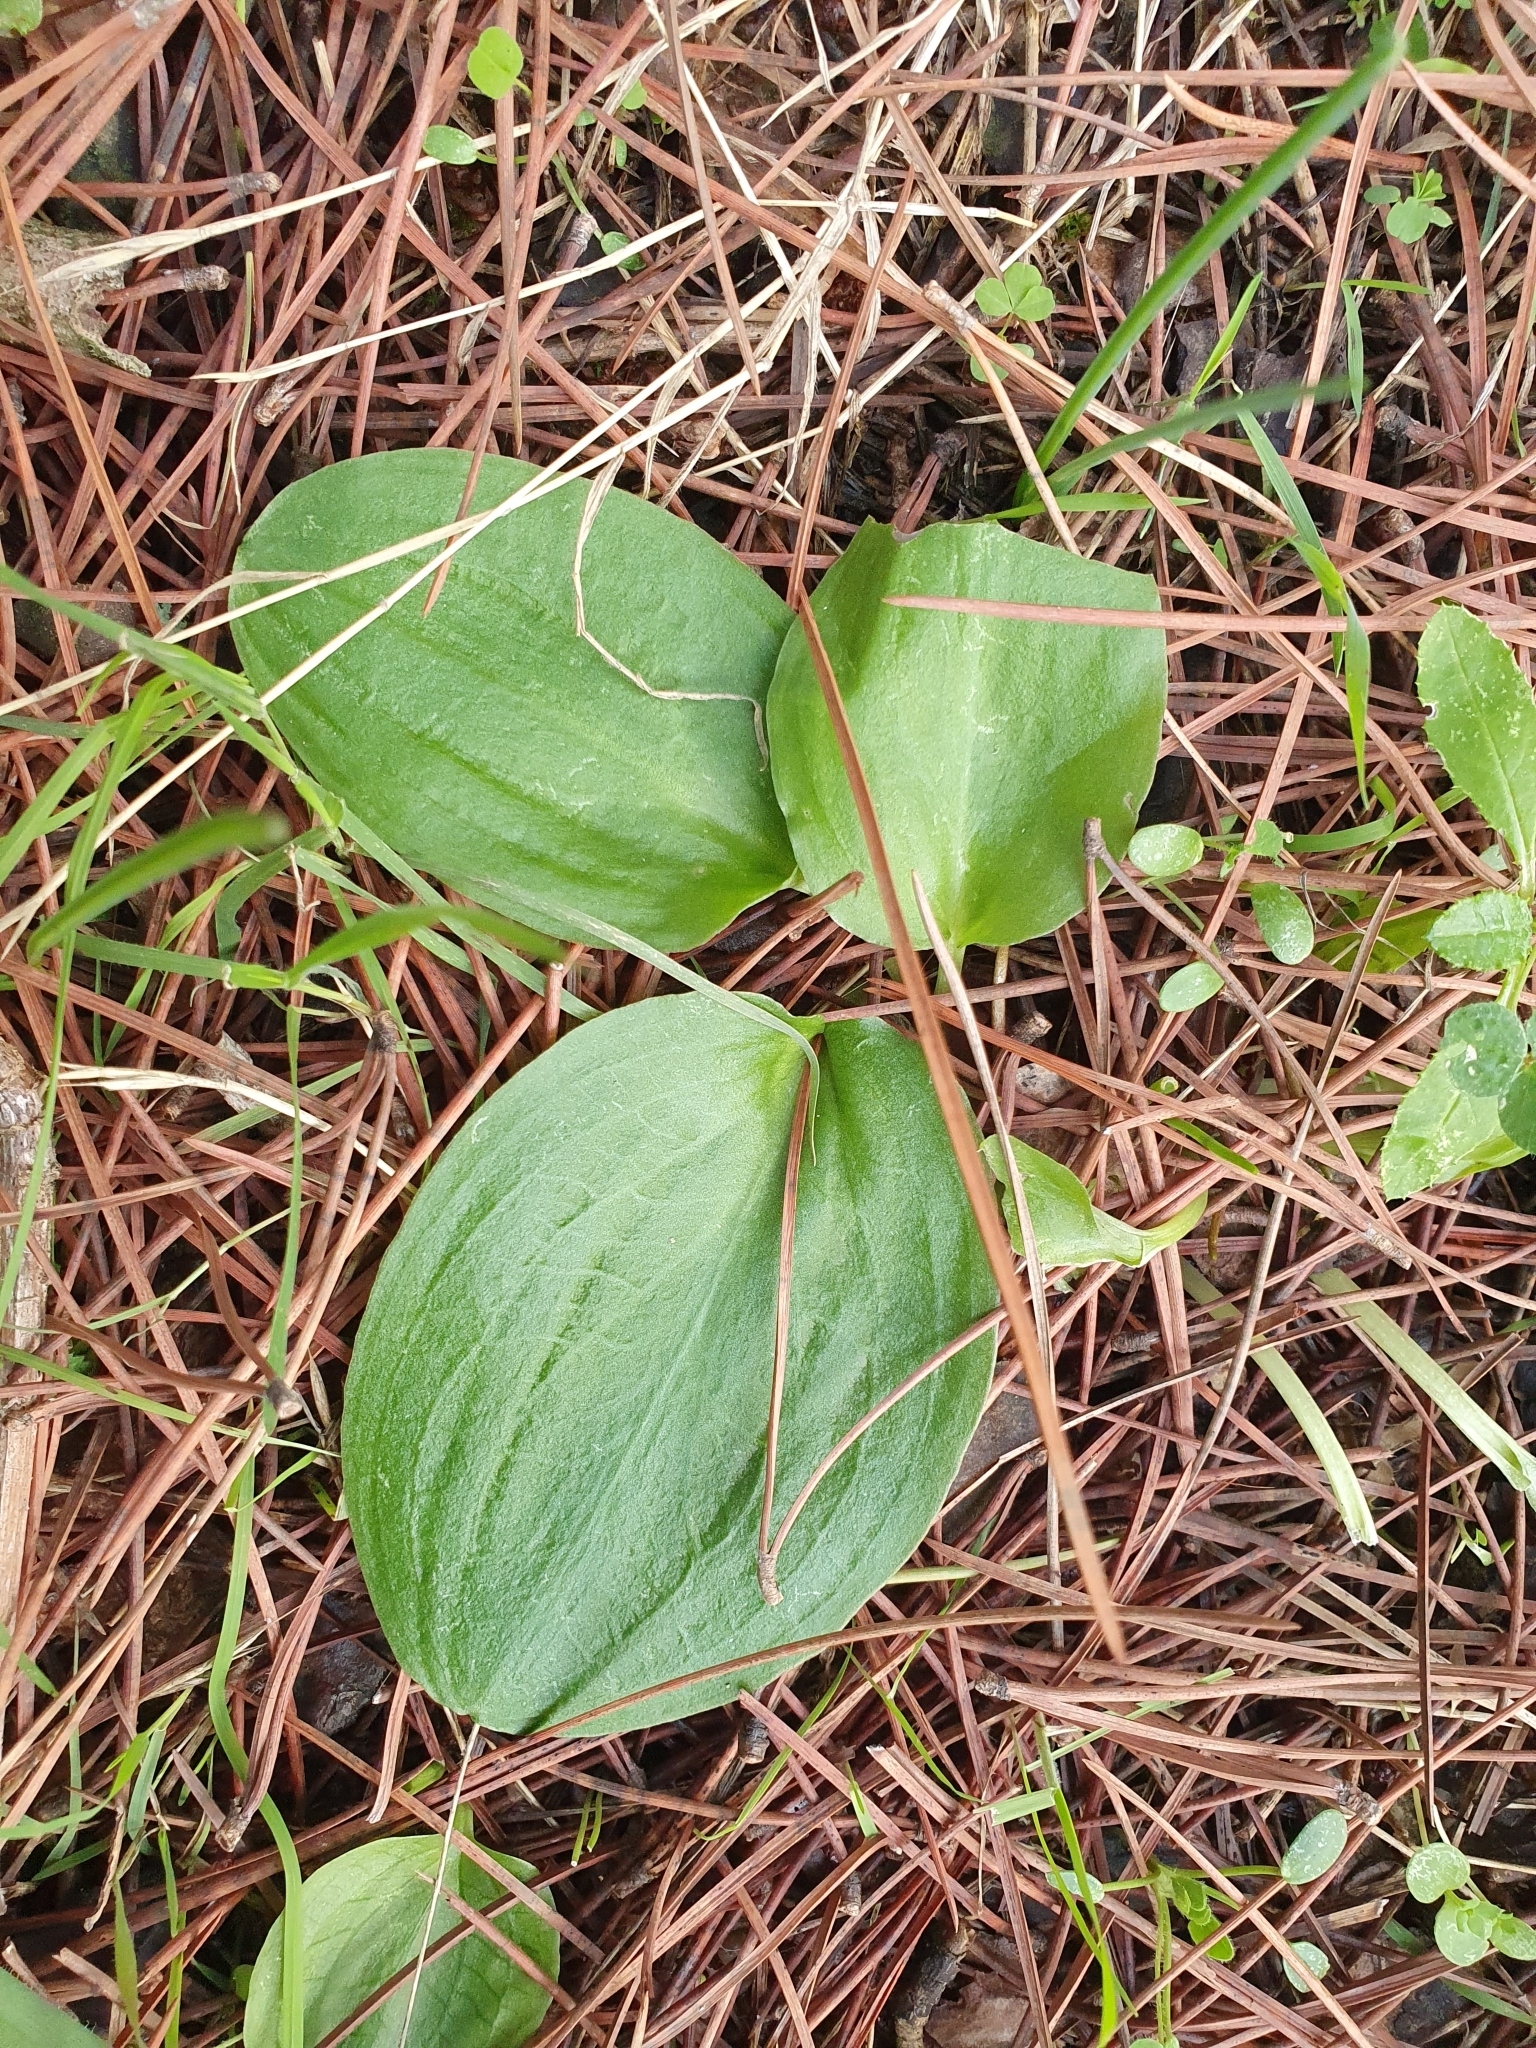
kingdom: Plantae
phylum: Tracheophyta
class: Liliopsida
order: Alismatales
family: Araceae
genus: Ambrosina
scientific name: Ambrosina bassii
